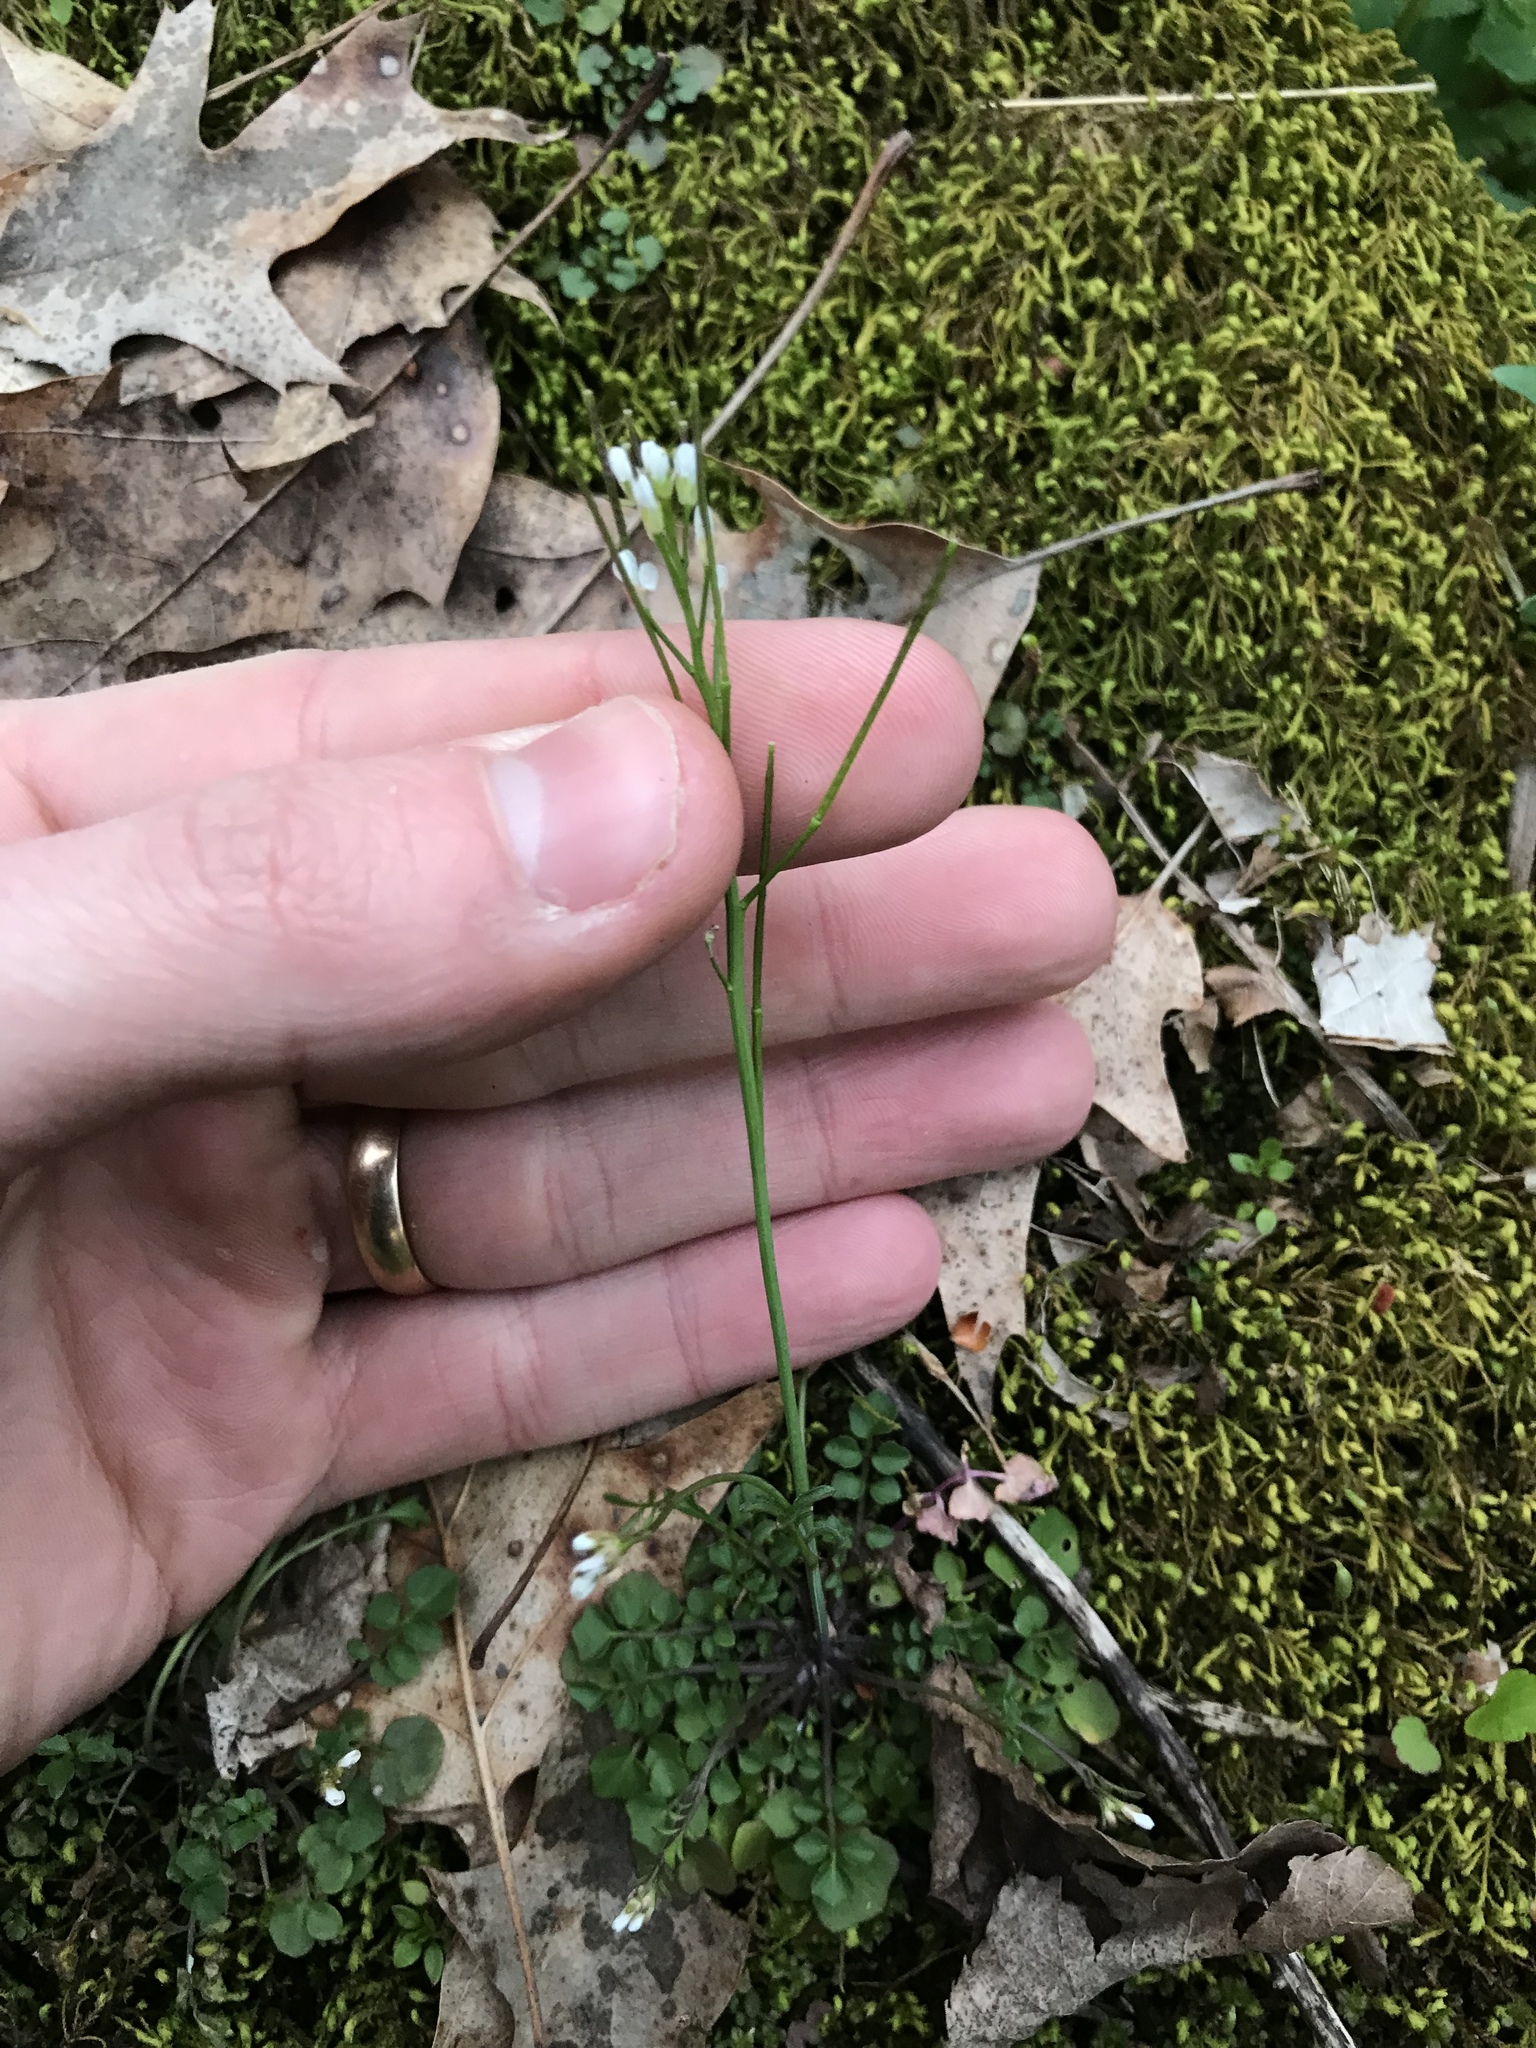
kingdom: Plantae
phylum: Tracheophyta
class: Magnoliopsida
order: Brassicales
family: Brassicaceae
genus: Cardamine
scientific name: Cardamine hirsuta
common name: Hairy bittercress
